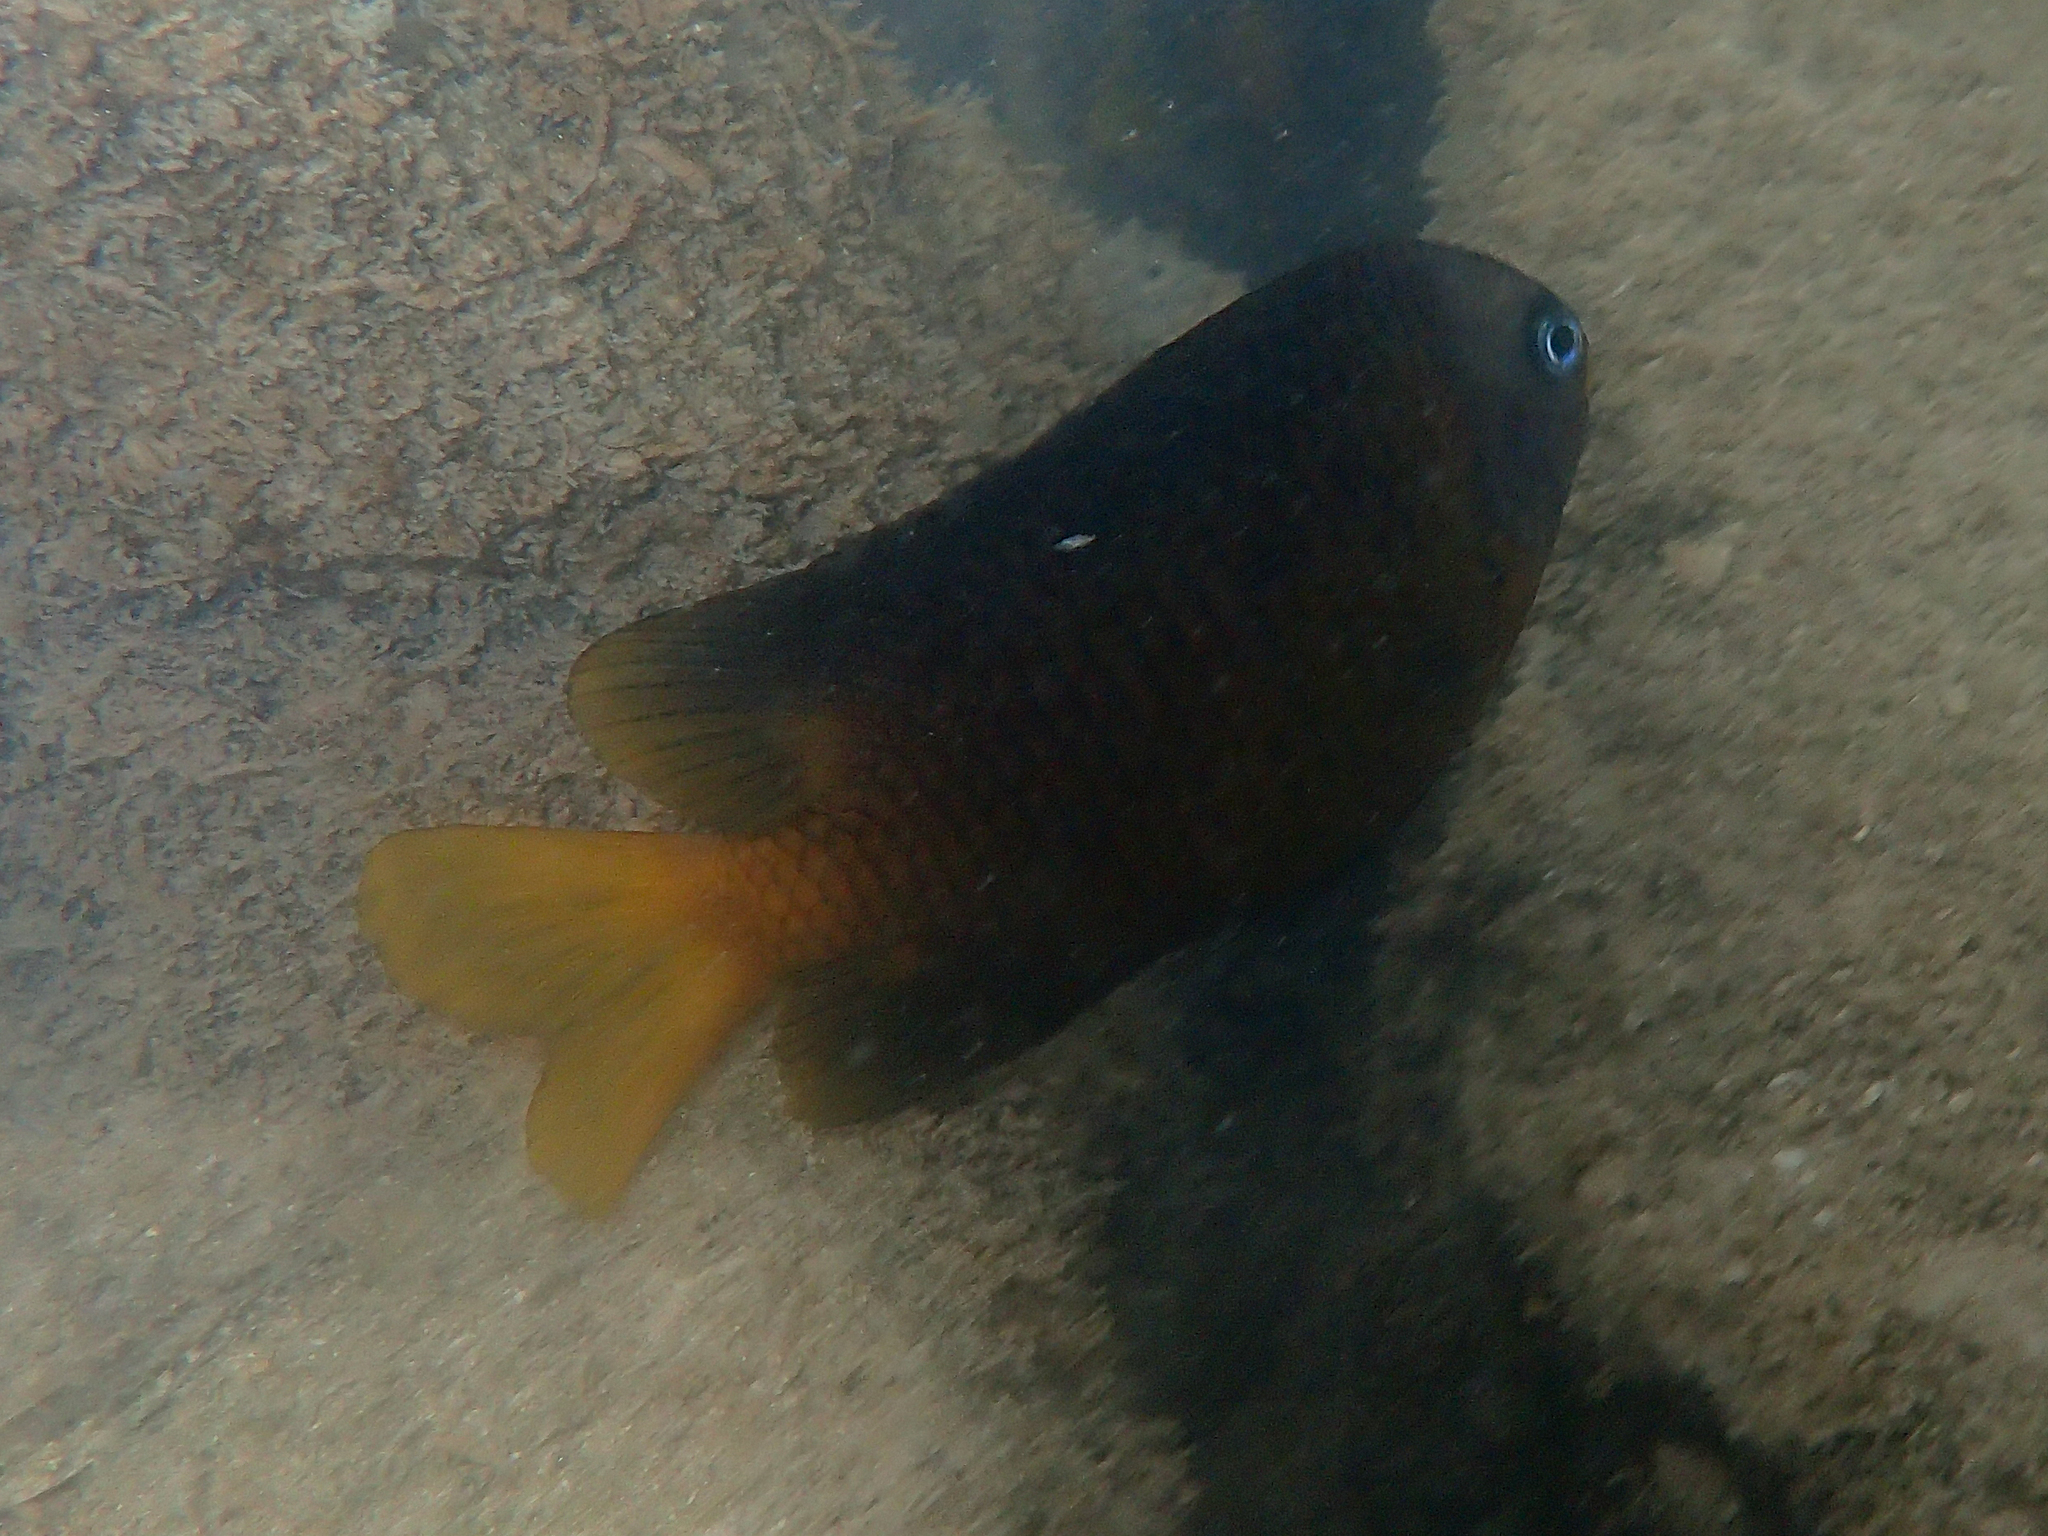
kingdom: Animalia
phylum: Chordata
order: Perciformes
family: Pomacentridae
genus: Stegastes
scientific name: Stegastes arcifrons
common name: Galapagos gregory
